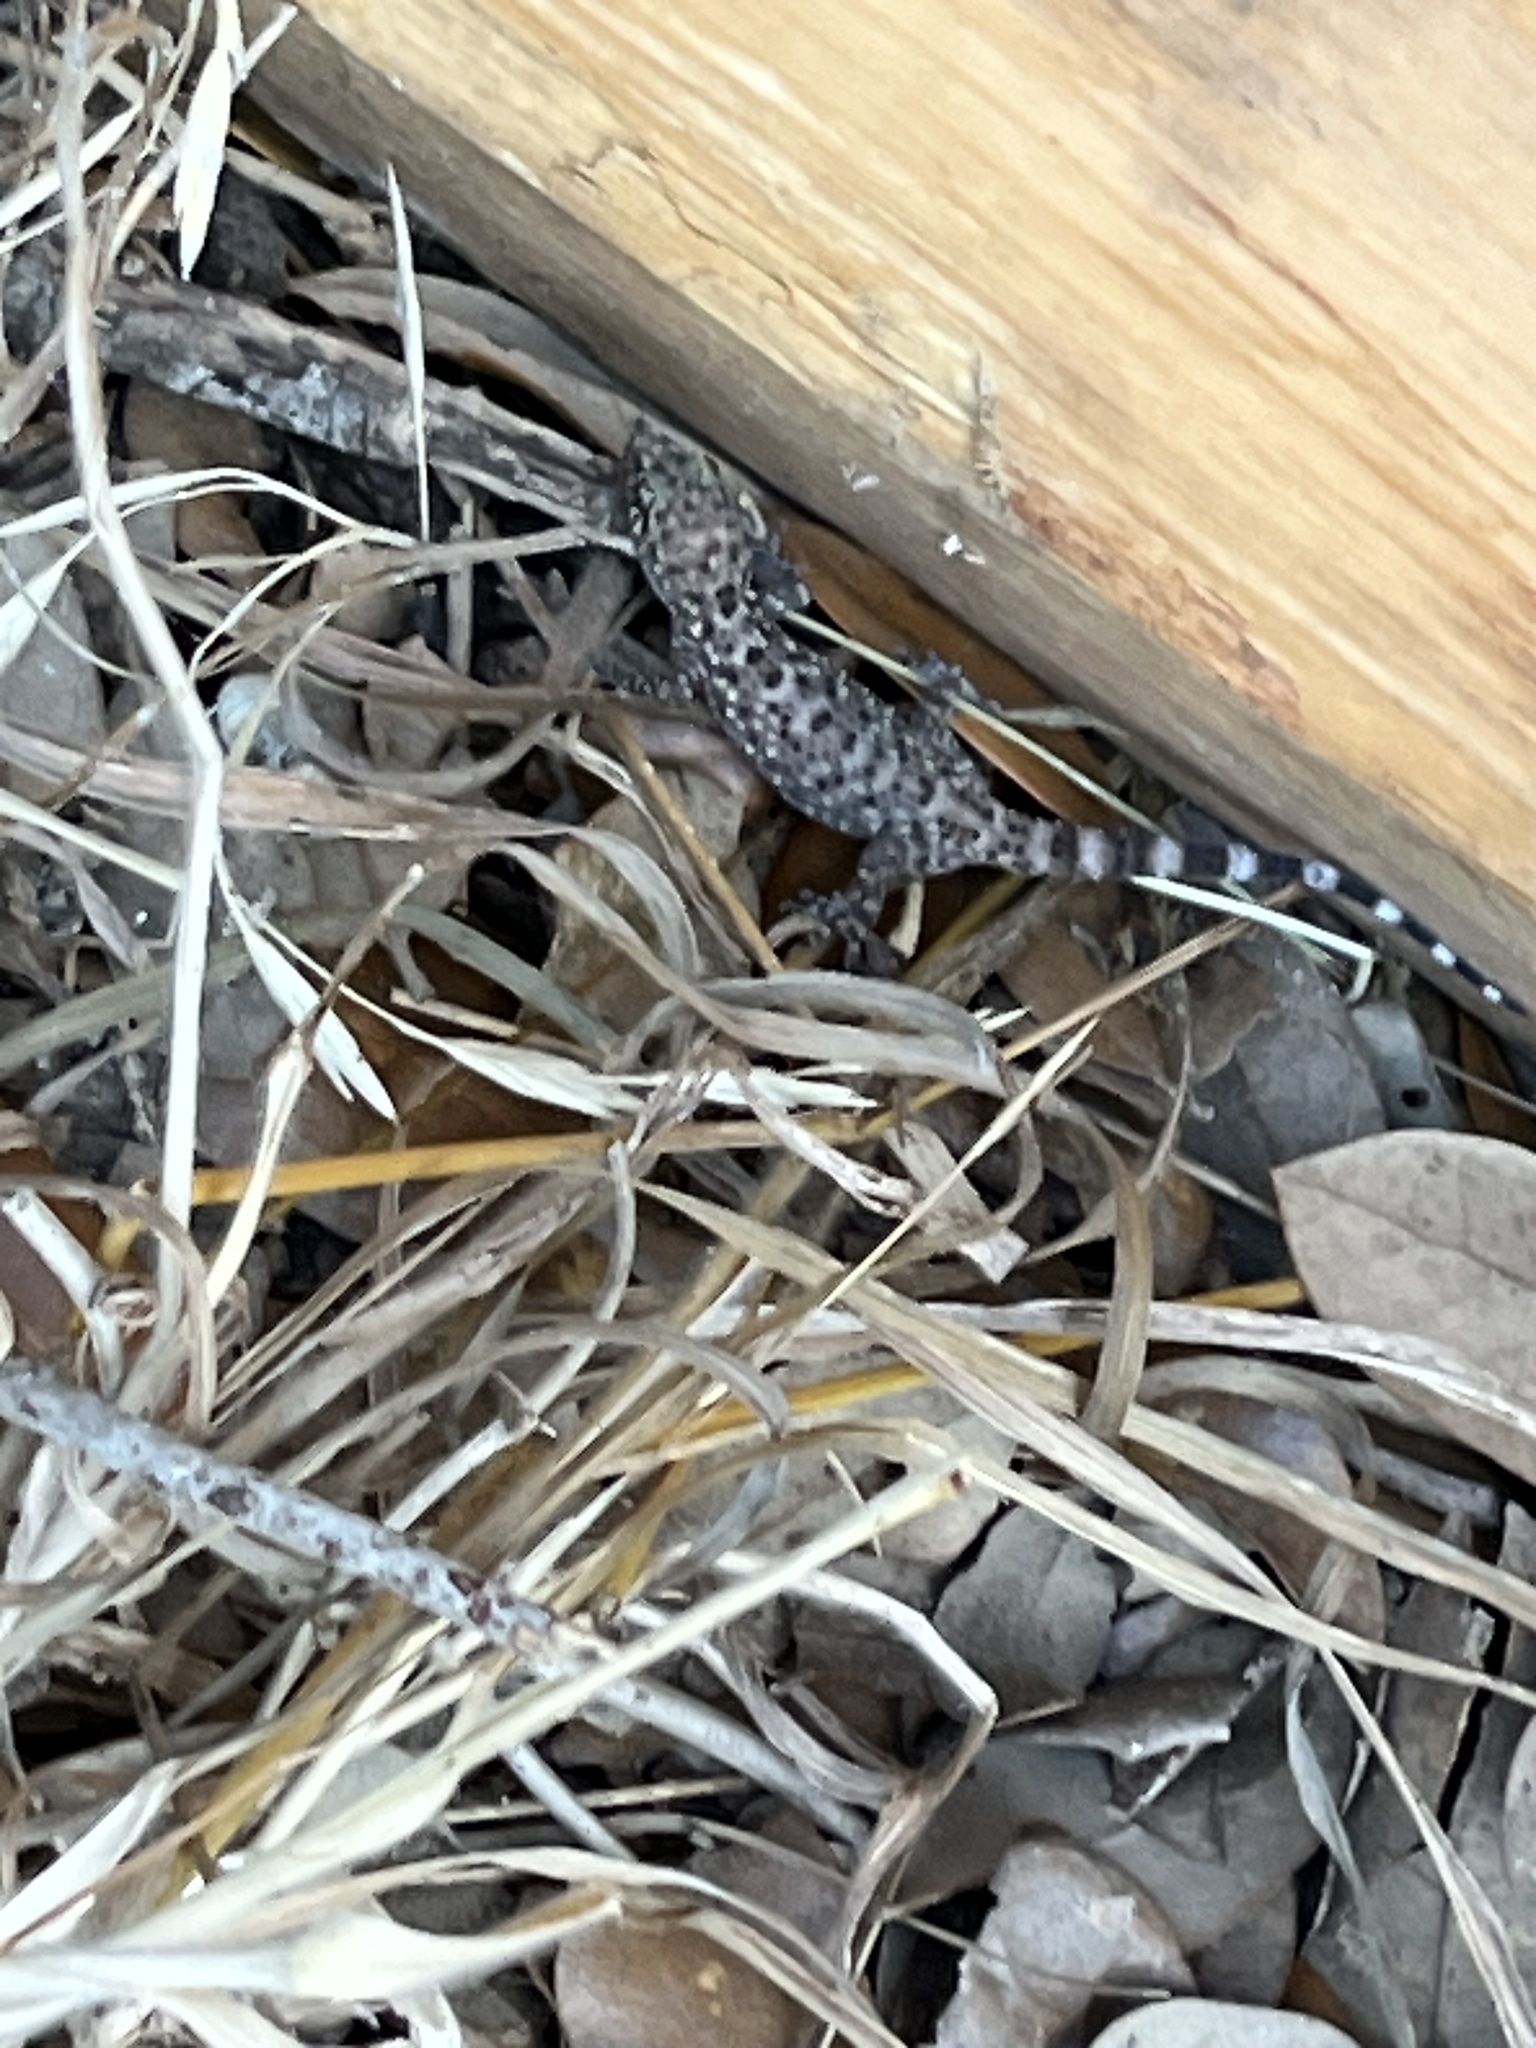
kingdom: Animalia
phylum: Chordata
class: Squamata
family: Gekkonidae
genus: Hemidactylus
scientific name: Hemidactylus turcicus
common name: Turkish gecko
